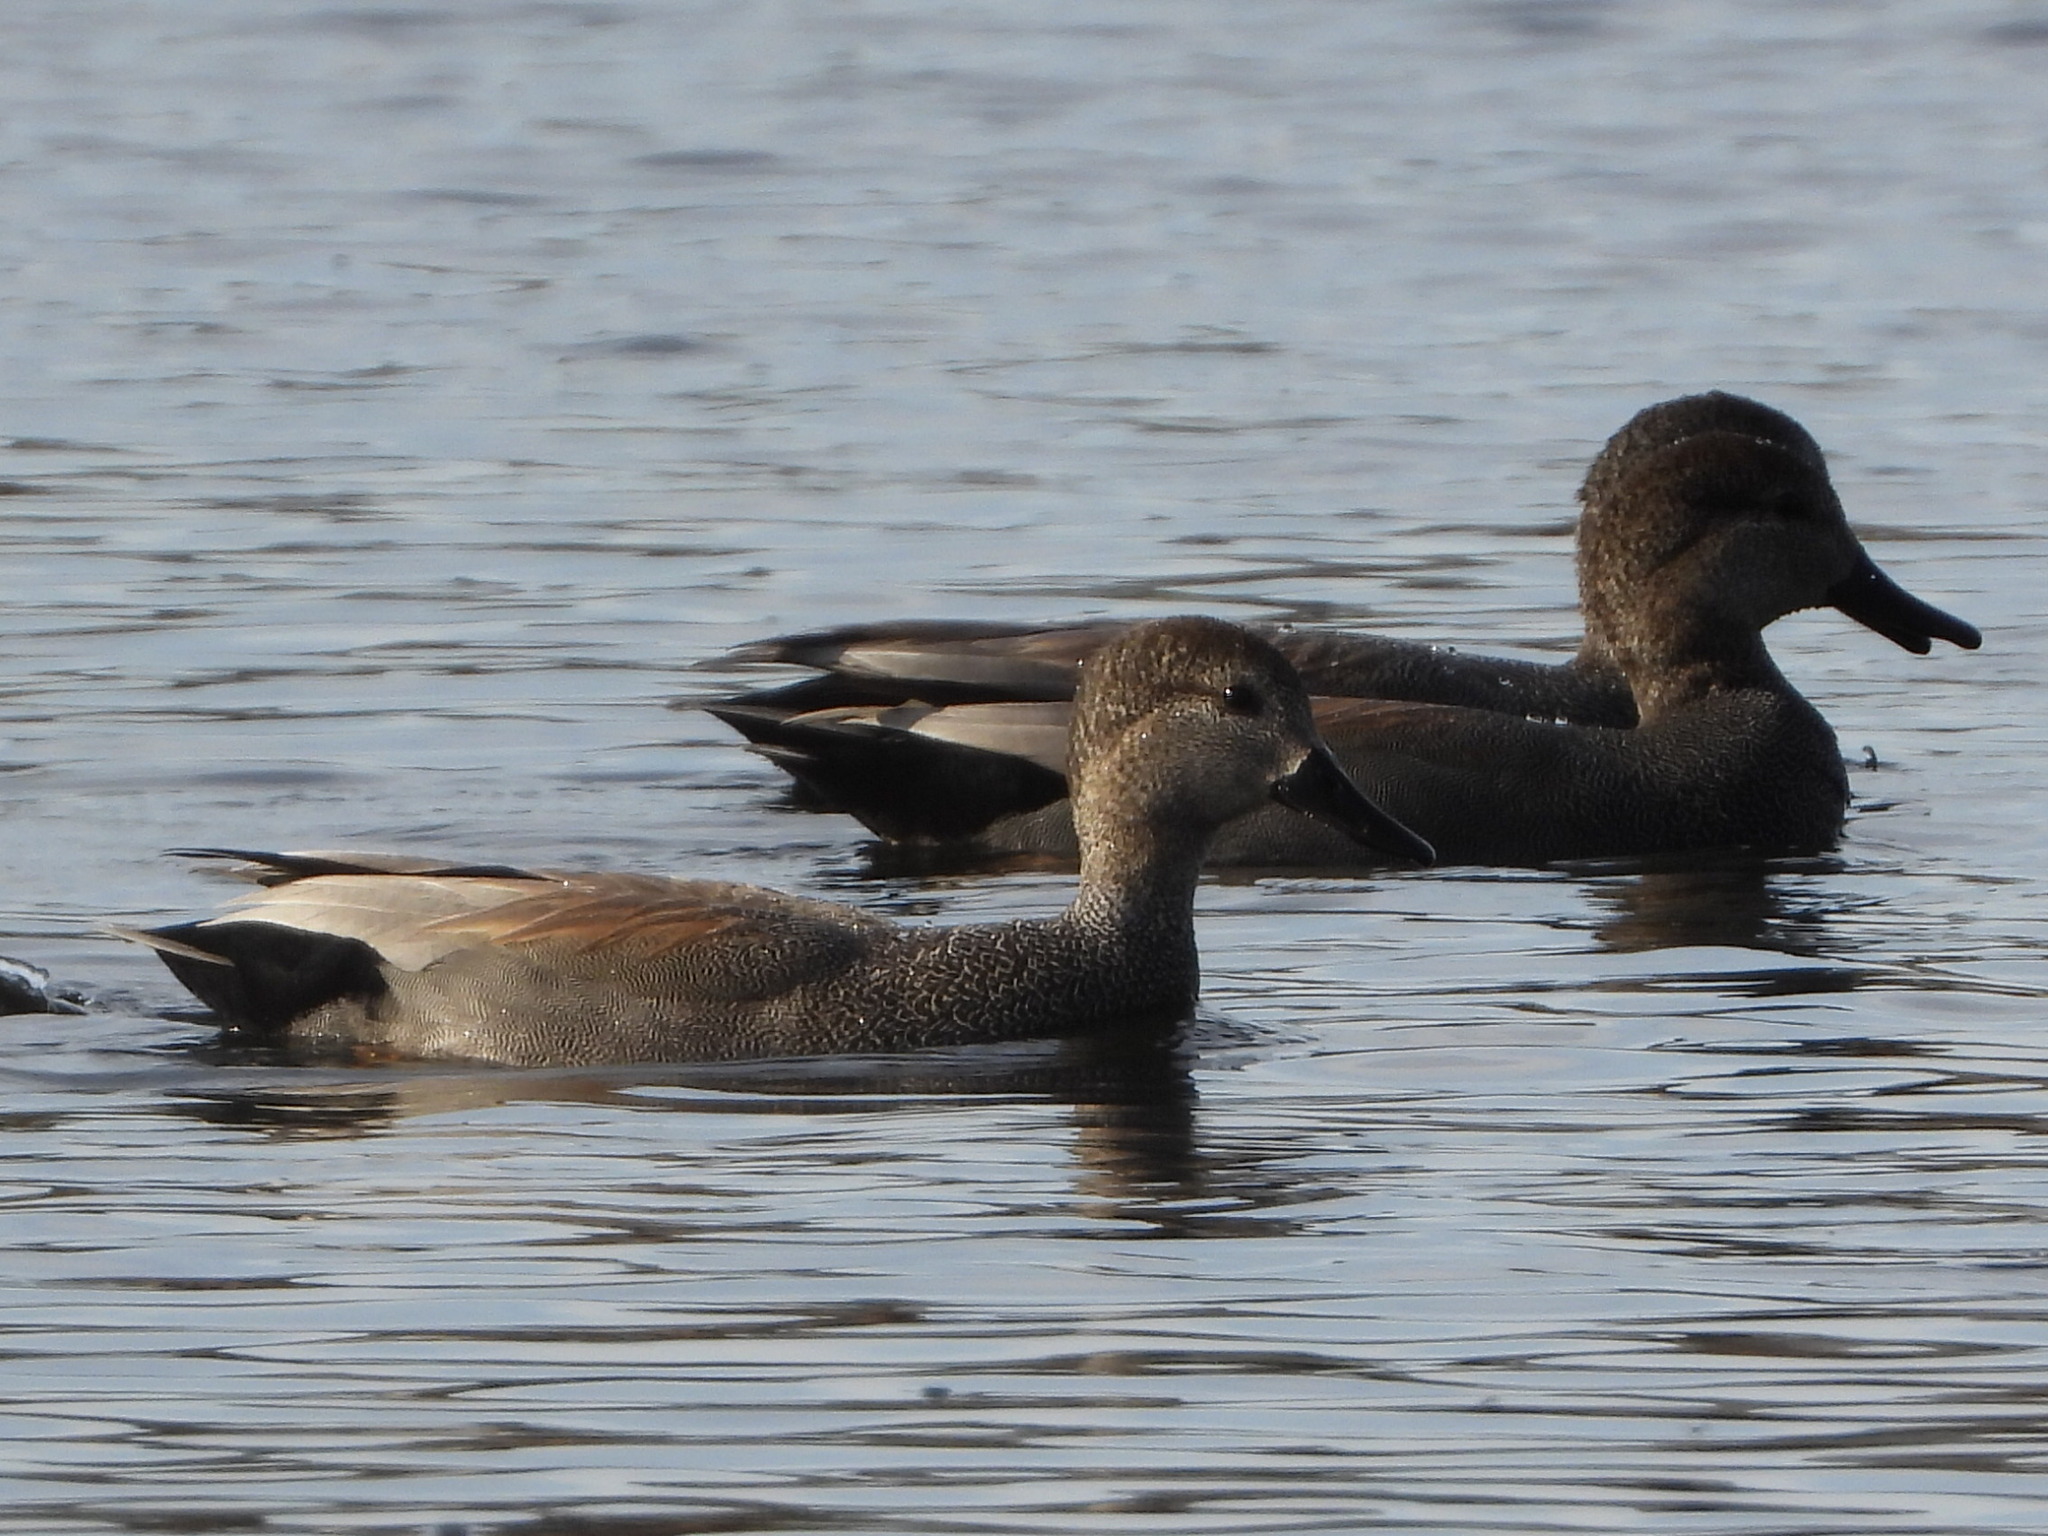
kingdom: Animalia
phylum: Chordata
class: Aves
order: Anseriformes
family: Anatidae
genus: Mareca
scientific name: Mareca strepera
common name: Gadwall
